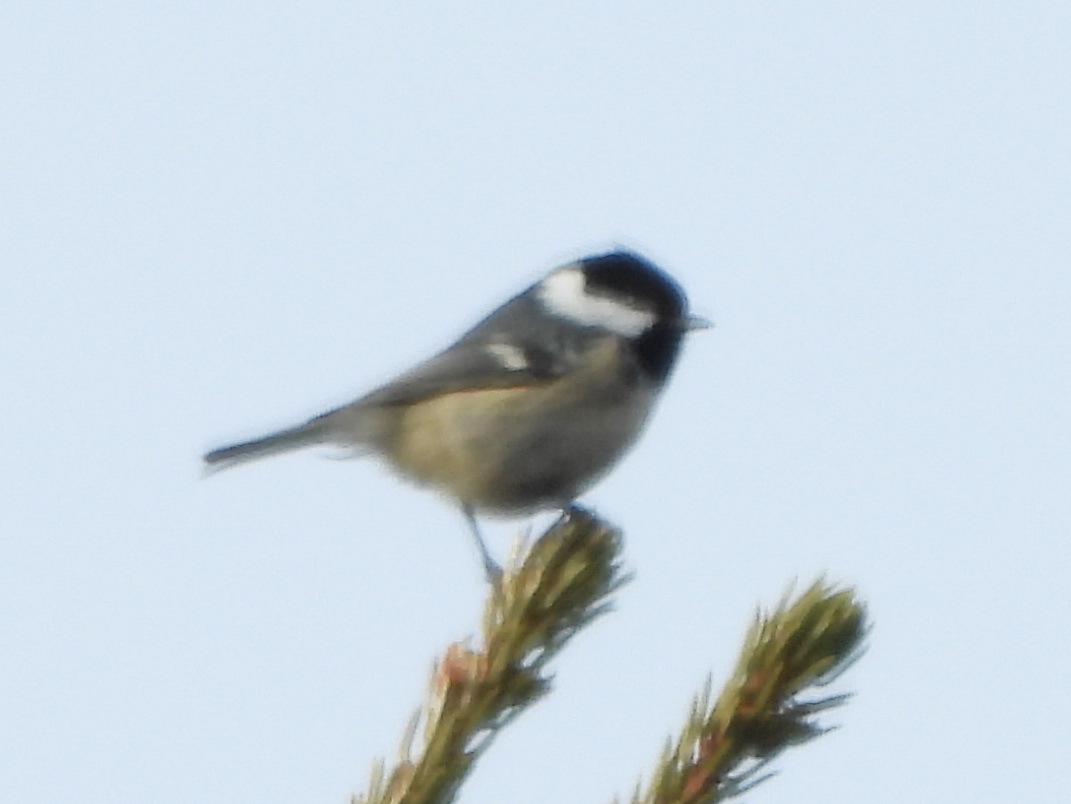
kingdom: Animalia
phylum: Chordata
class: Aves
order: Passeriformes
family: Paridae
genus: Periparus
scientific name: Periparus ater
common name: Coal tit
